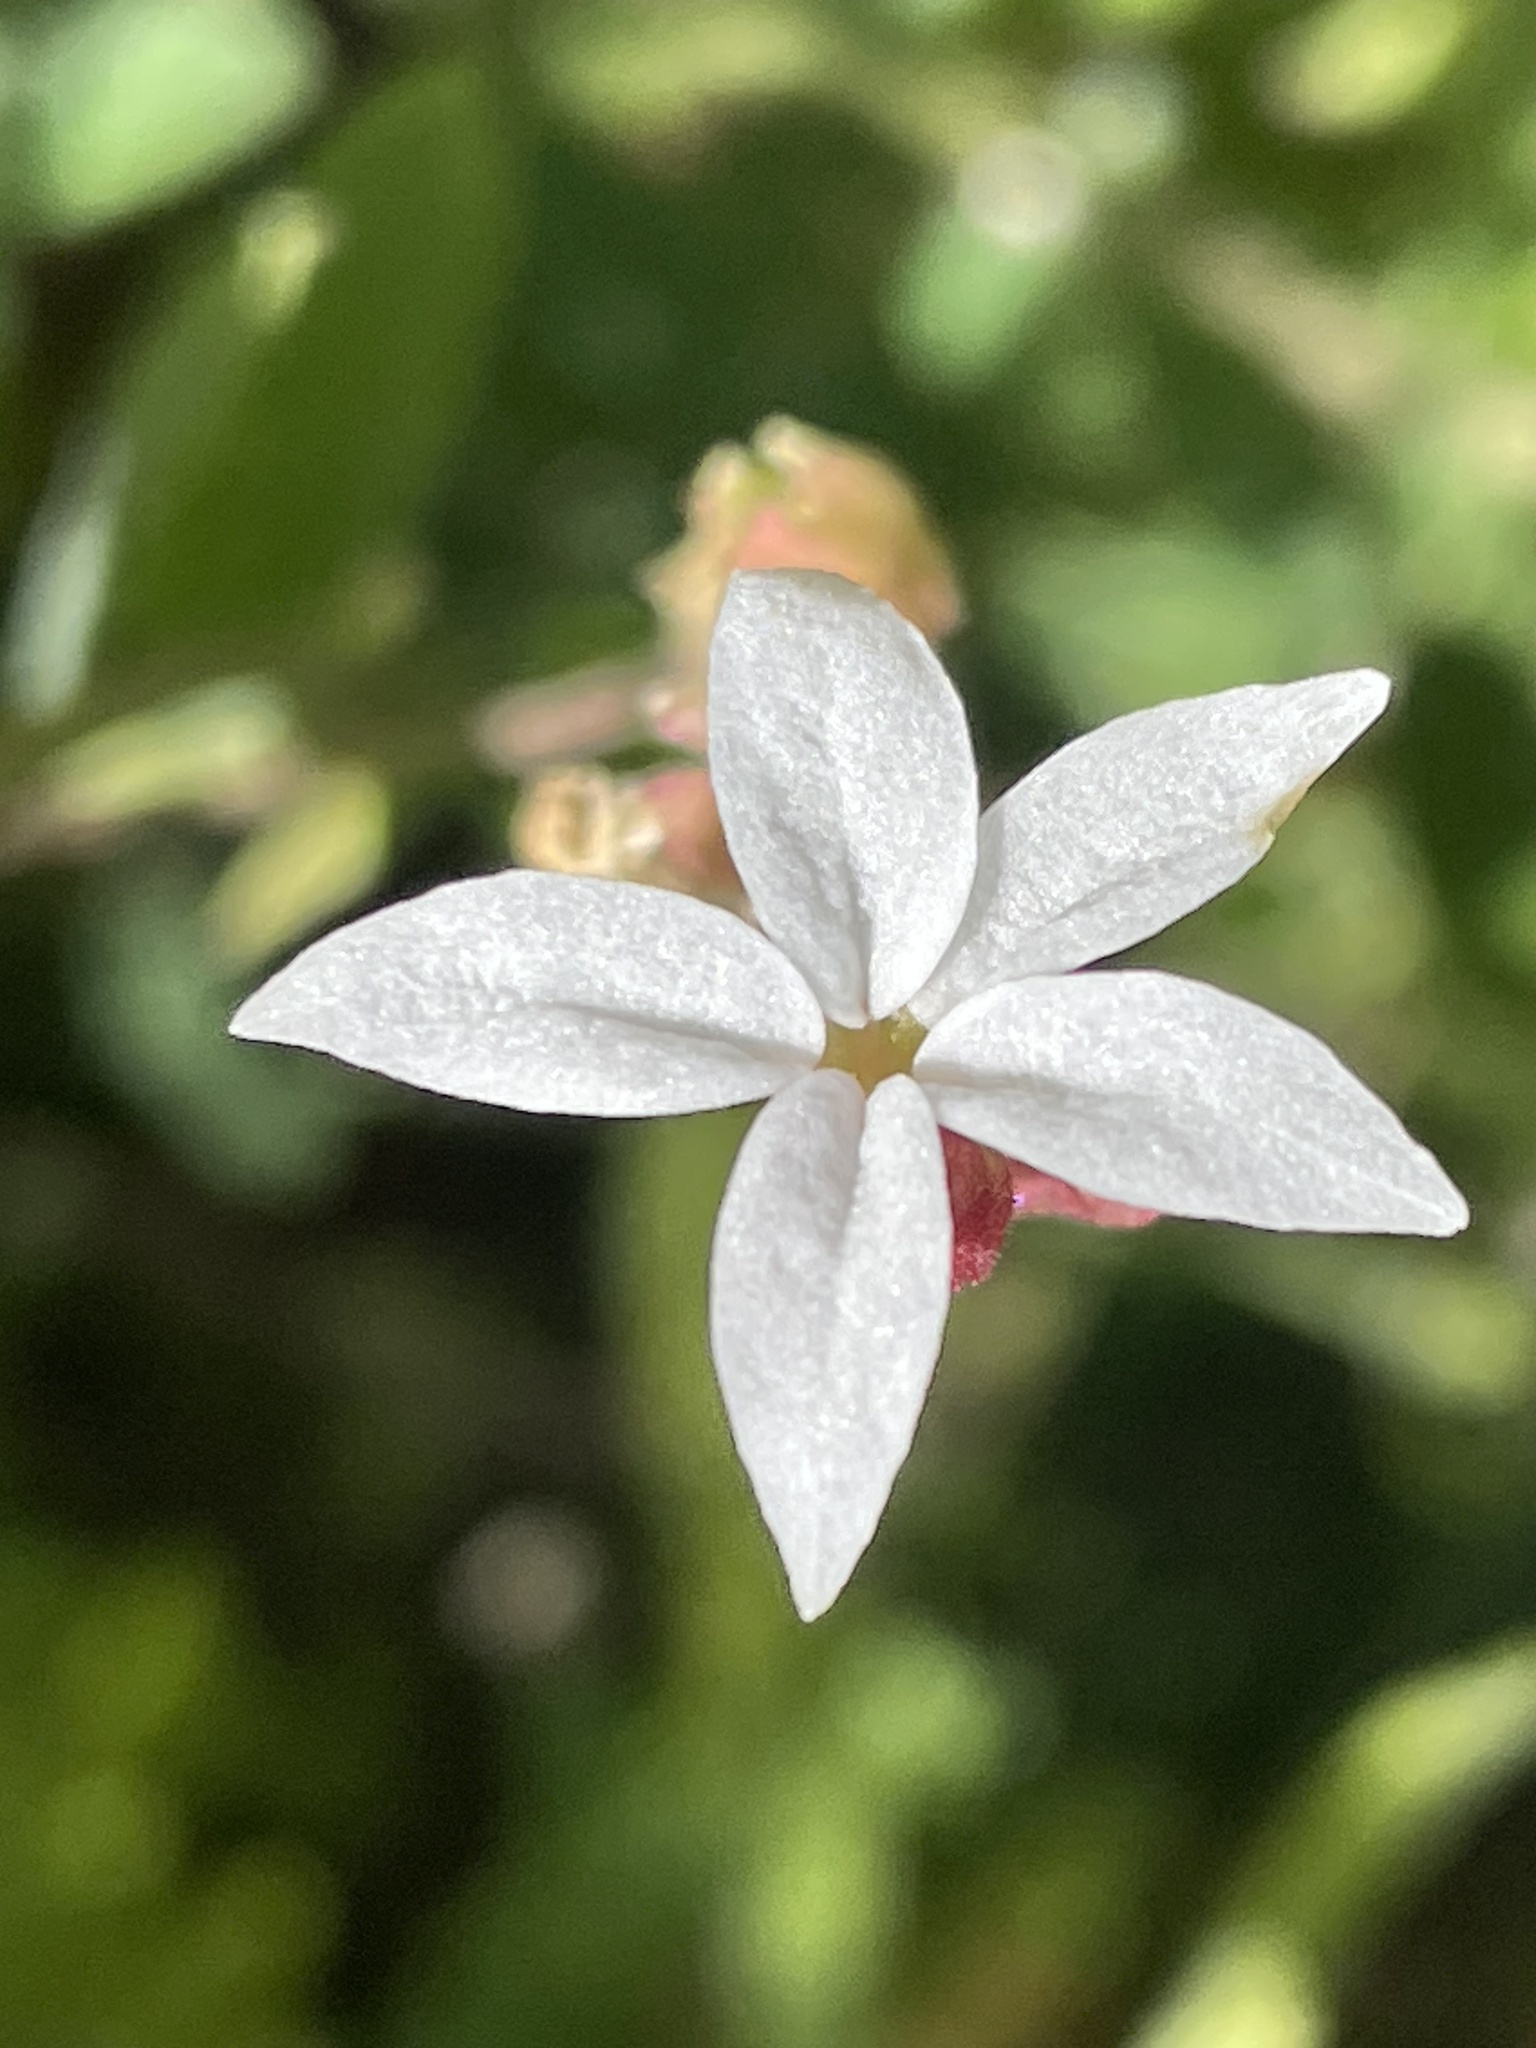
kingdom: Plantae
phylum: Tracheophyta
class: Magnoliopsida
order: Saxifragales
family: Saxifragaceae
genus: Lithophragma
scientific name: Lithophragma heterophyllum
